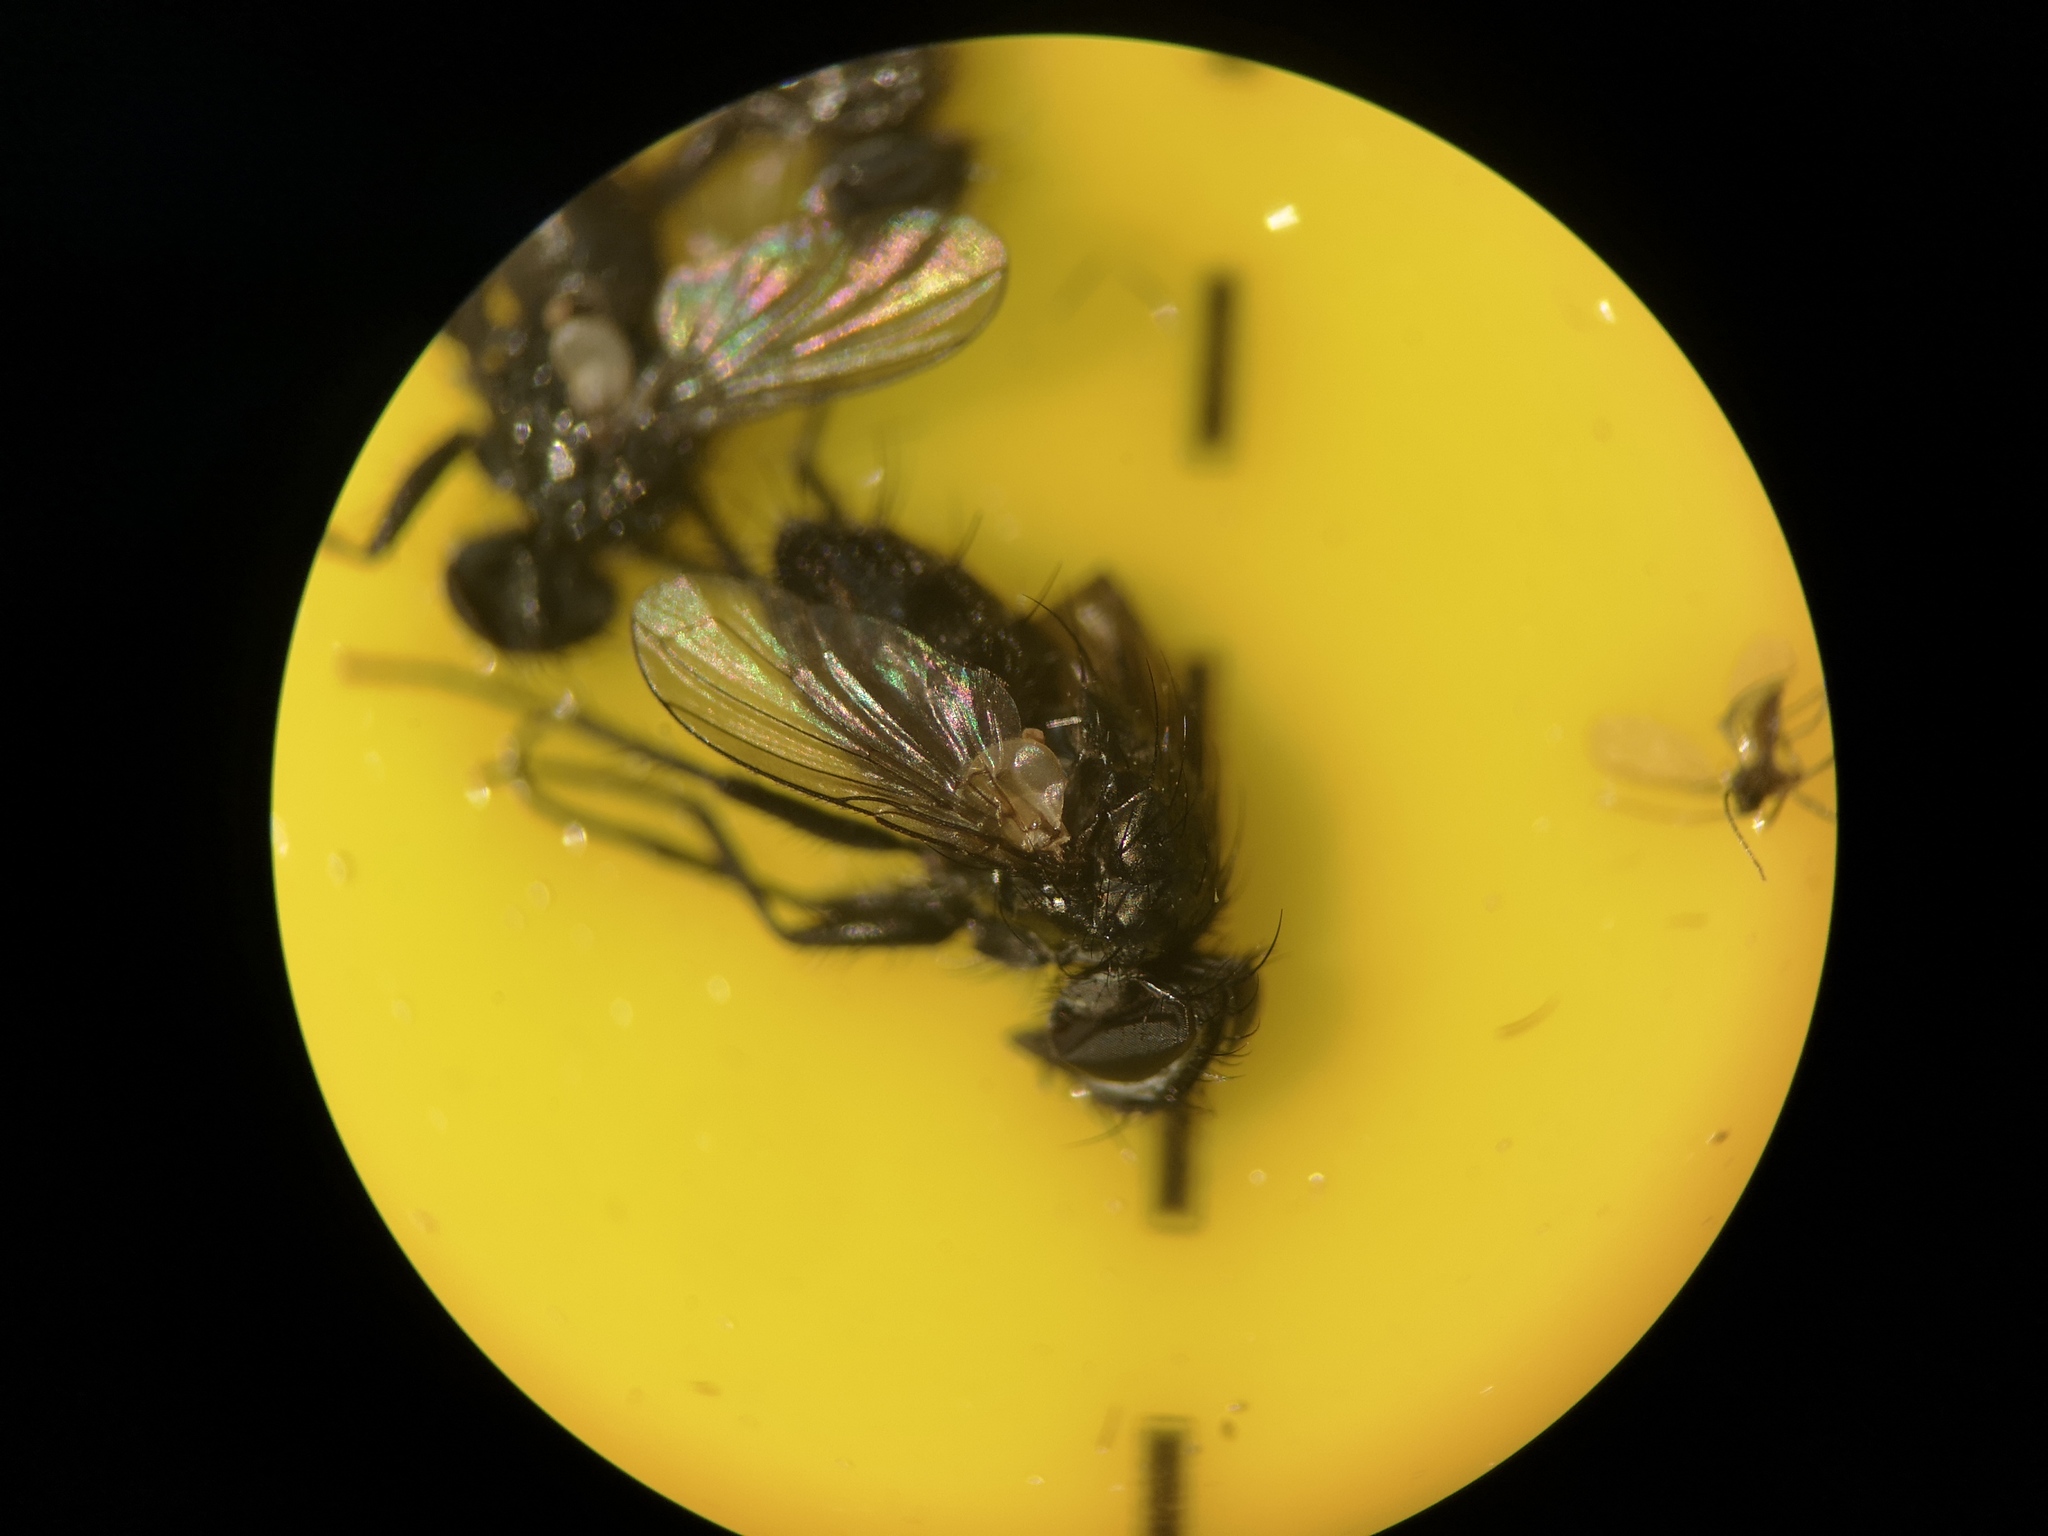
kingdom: Animalia
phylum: Arthropoda
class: Insecta
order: Diptera
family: Calliphoridae
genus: Rhinophora
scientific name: Rhinophora lepida
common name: Pouting woodlouse-fly
